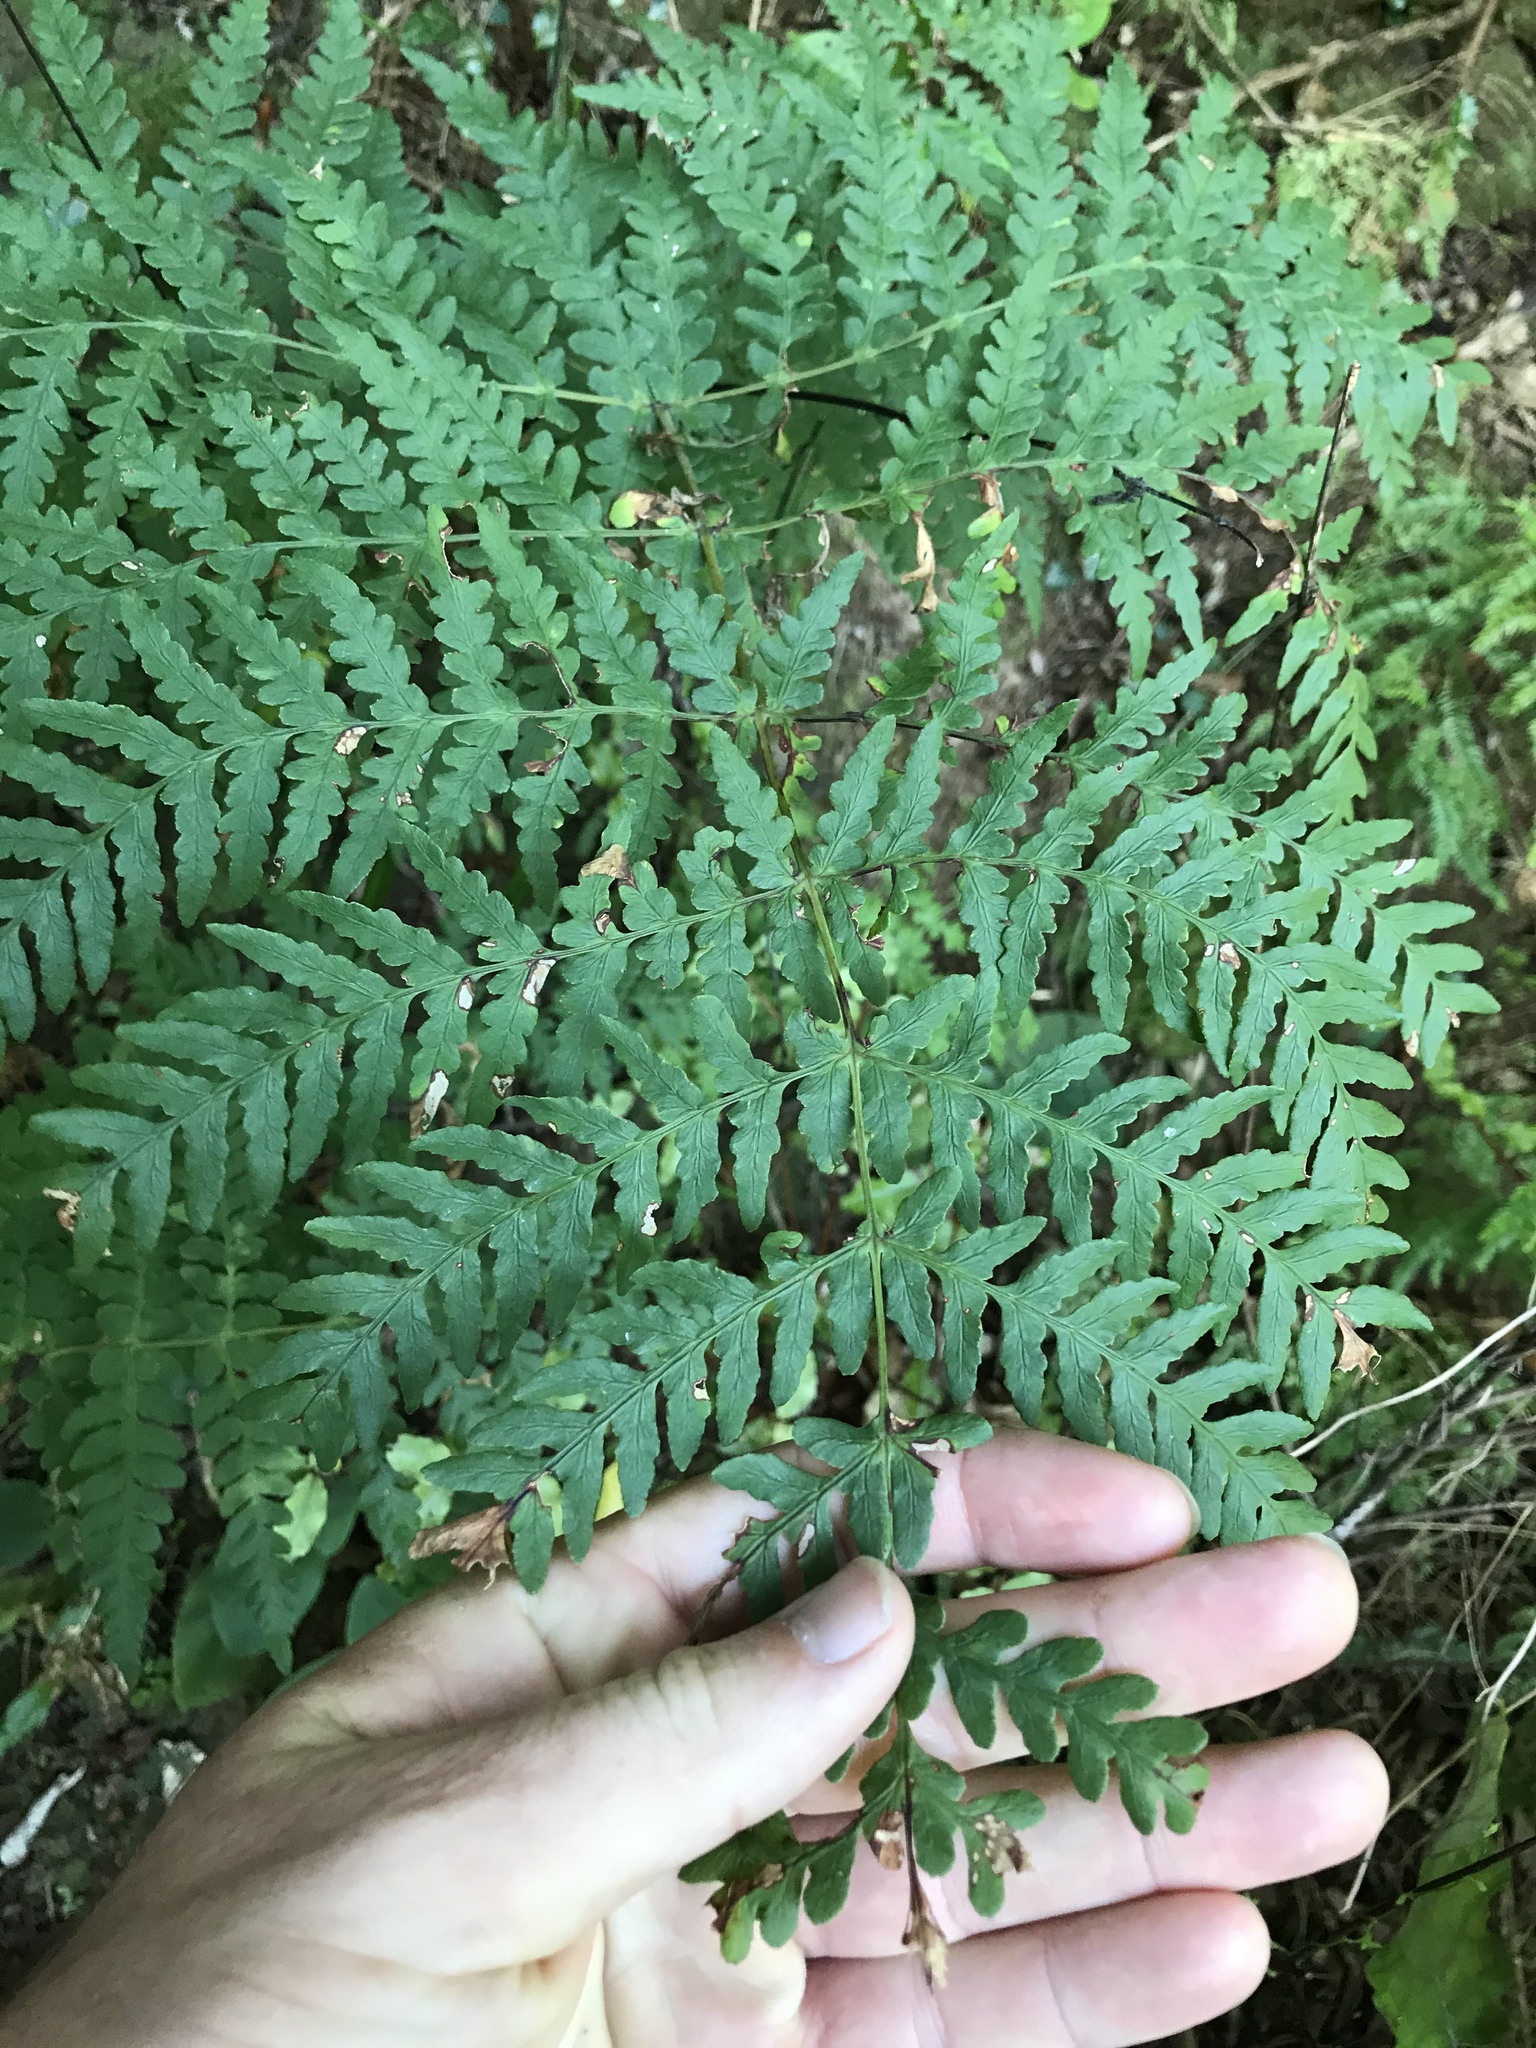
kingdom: Plantae
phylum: Tracheophyta
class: Polypodiopsida
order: Polypodiales
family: Dennstaedtiaceae
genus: Histiopteris
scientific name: Histiopteris incisa
